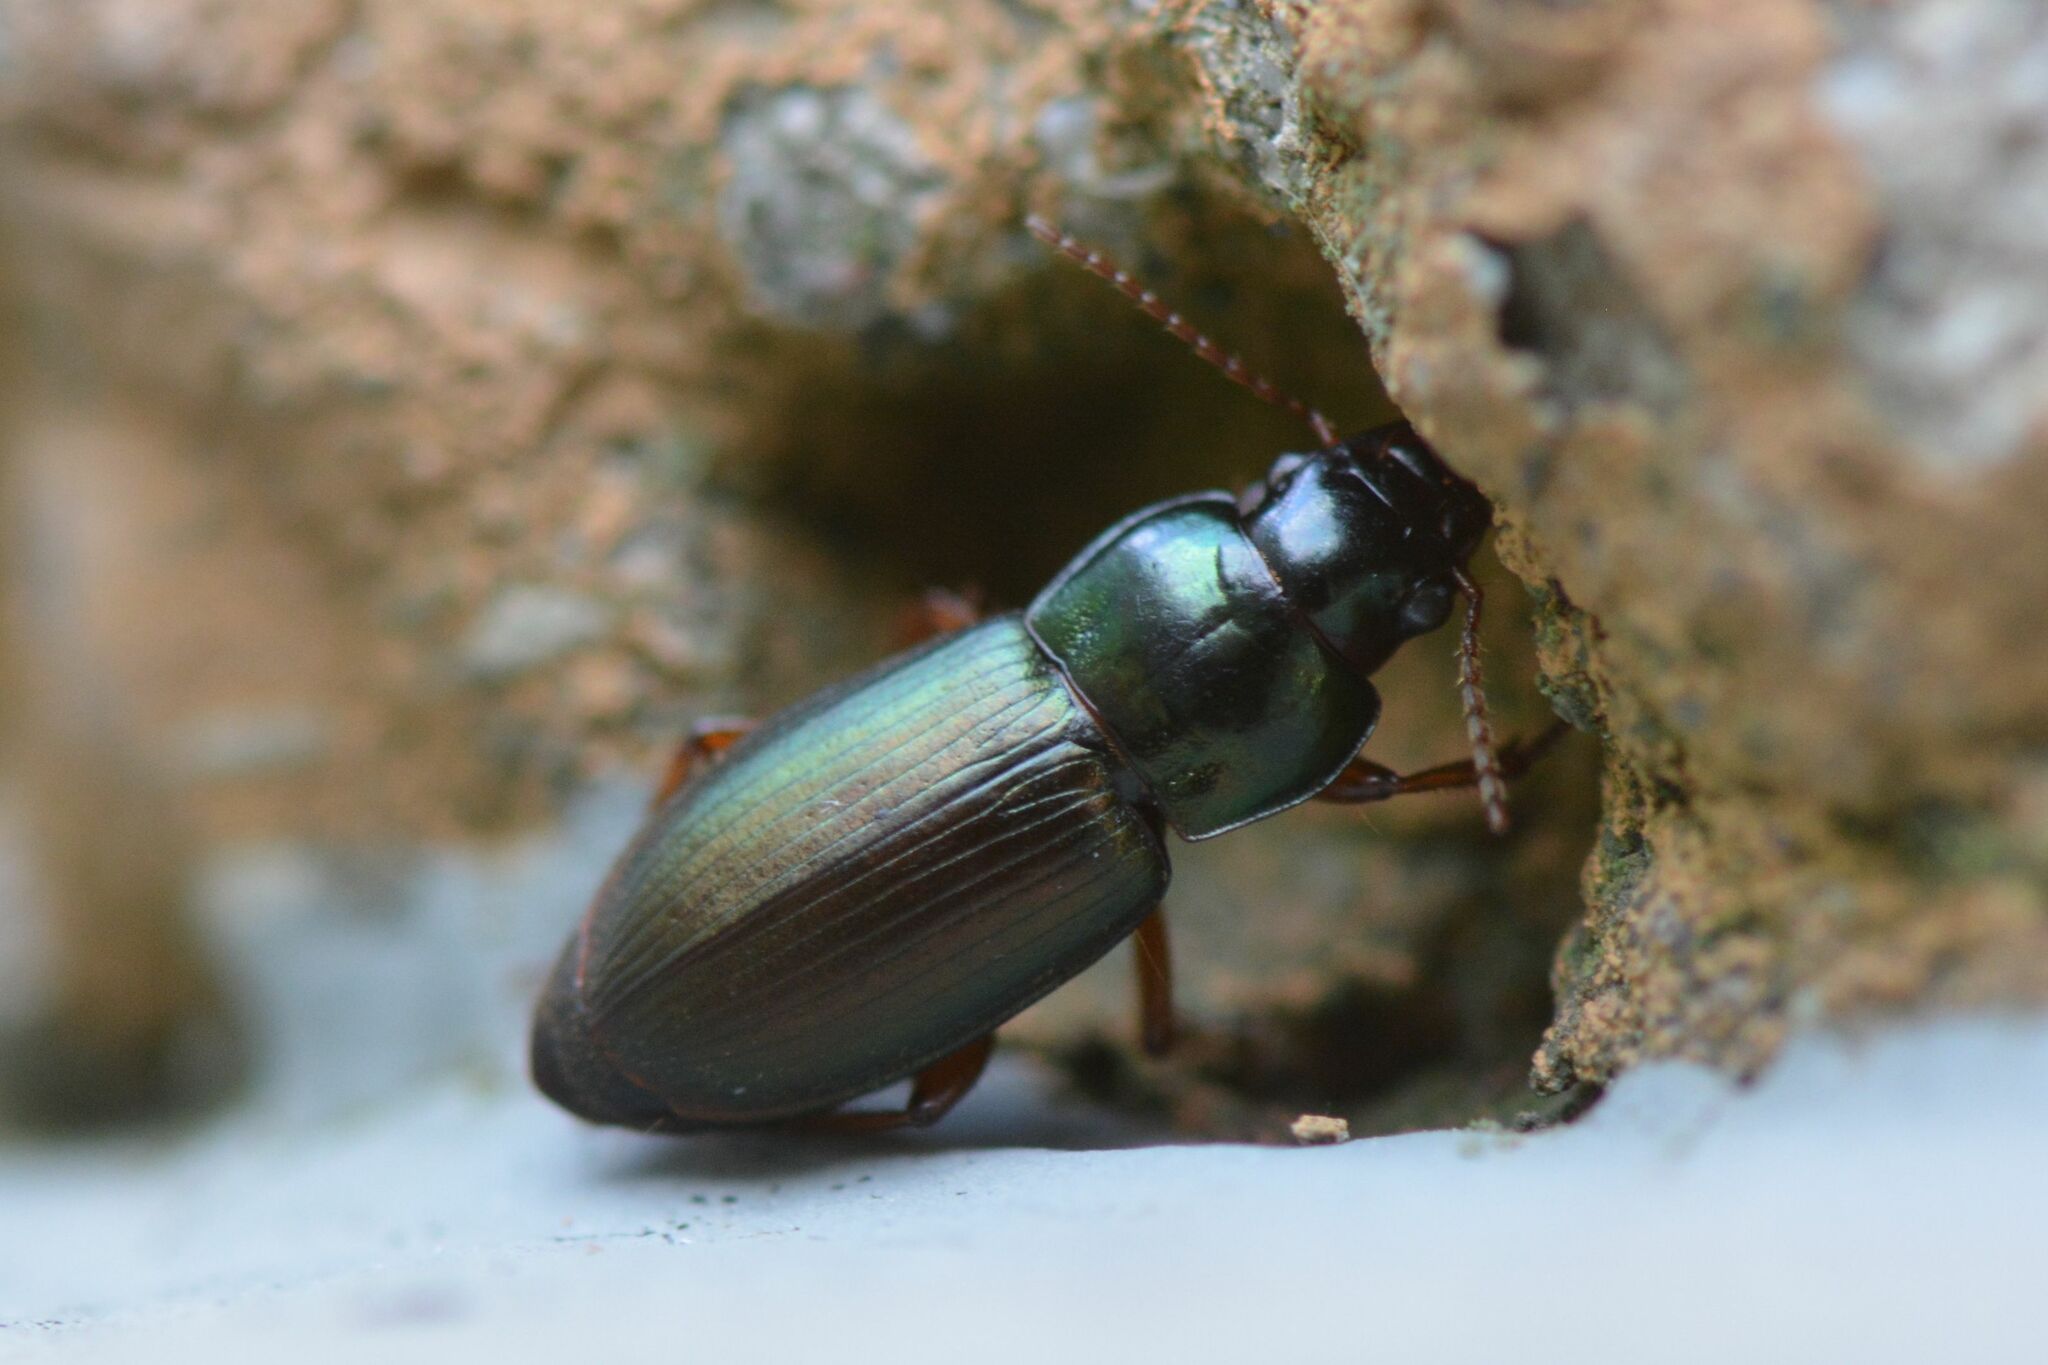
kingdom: Animalia
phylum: Arthropoda
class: Insecta
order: Coleoptera
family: Carabidae
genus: Harpalus
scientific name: Harpalus affinis
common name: Polychrome harp ground beetle
